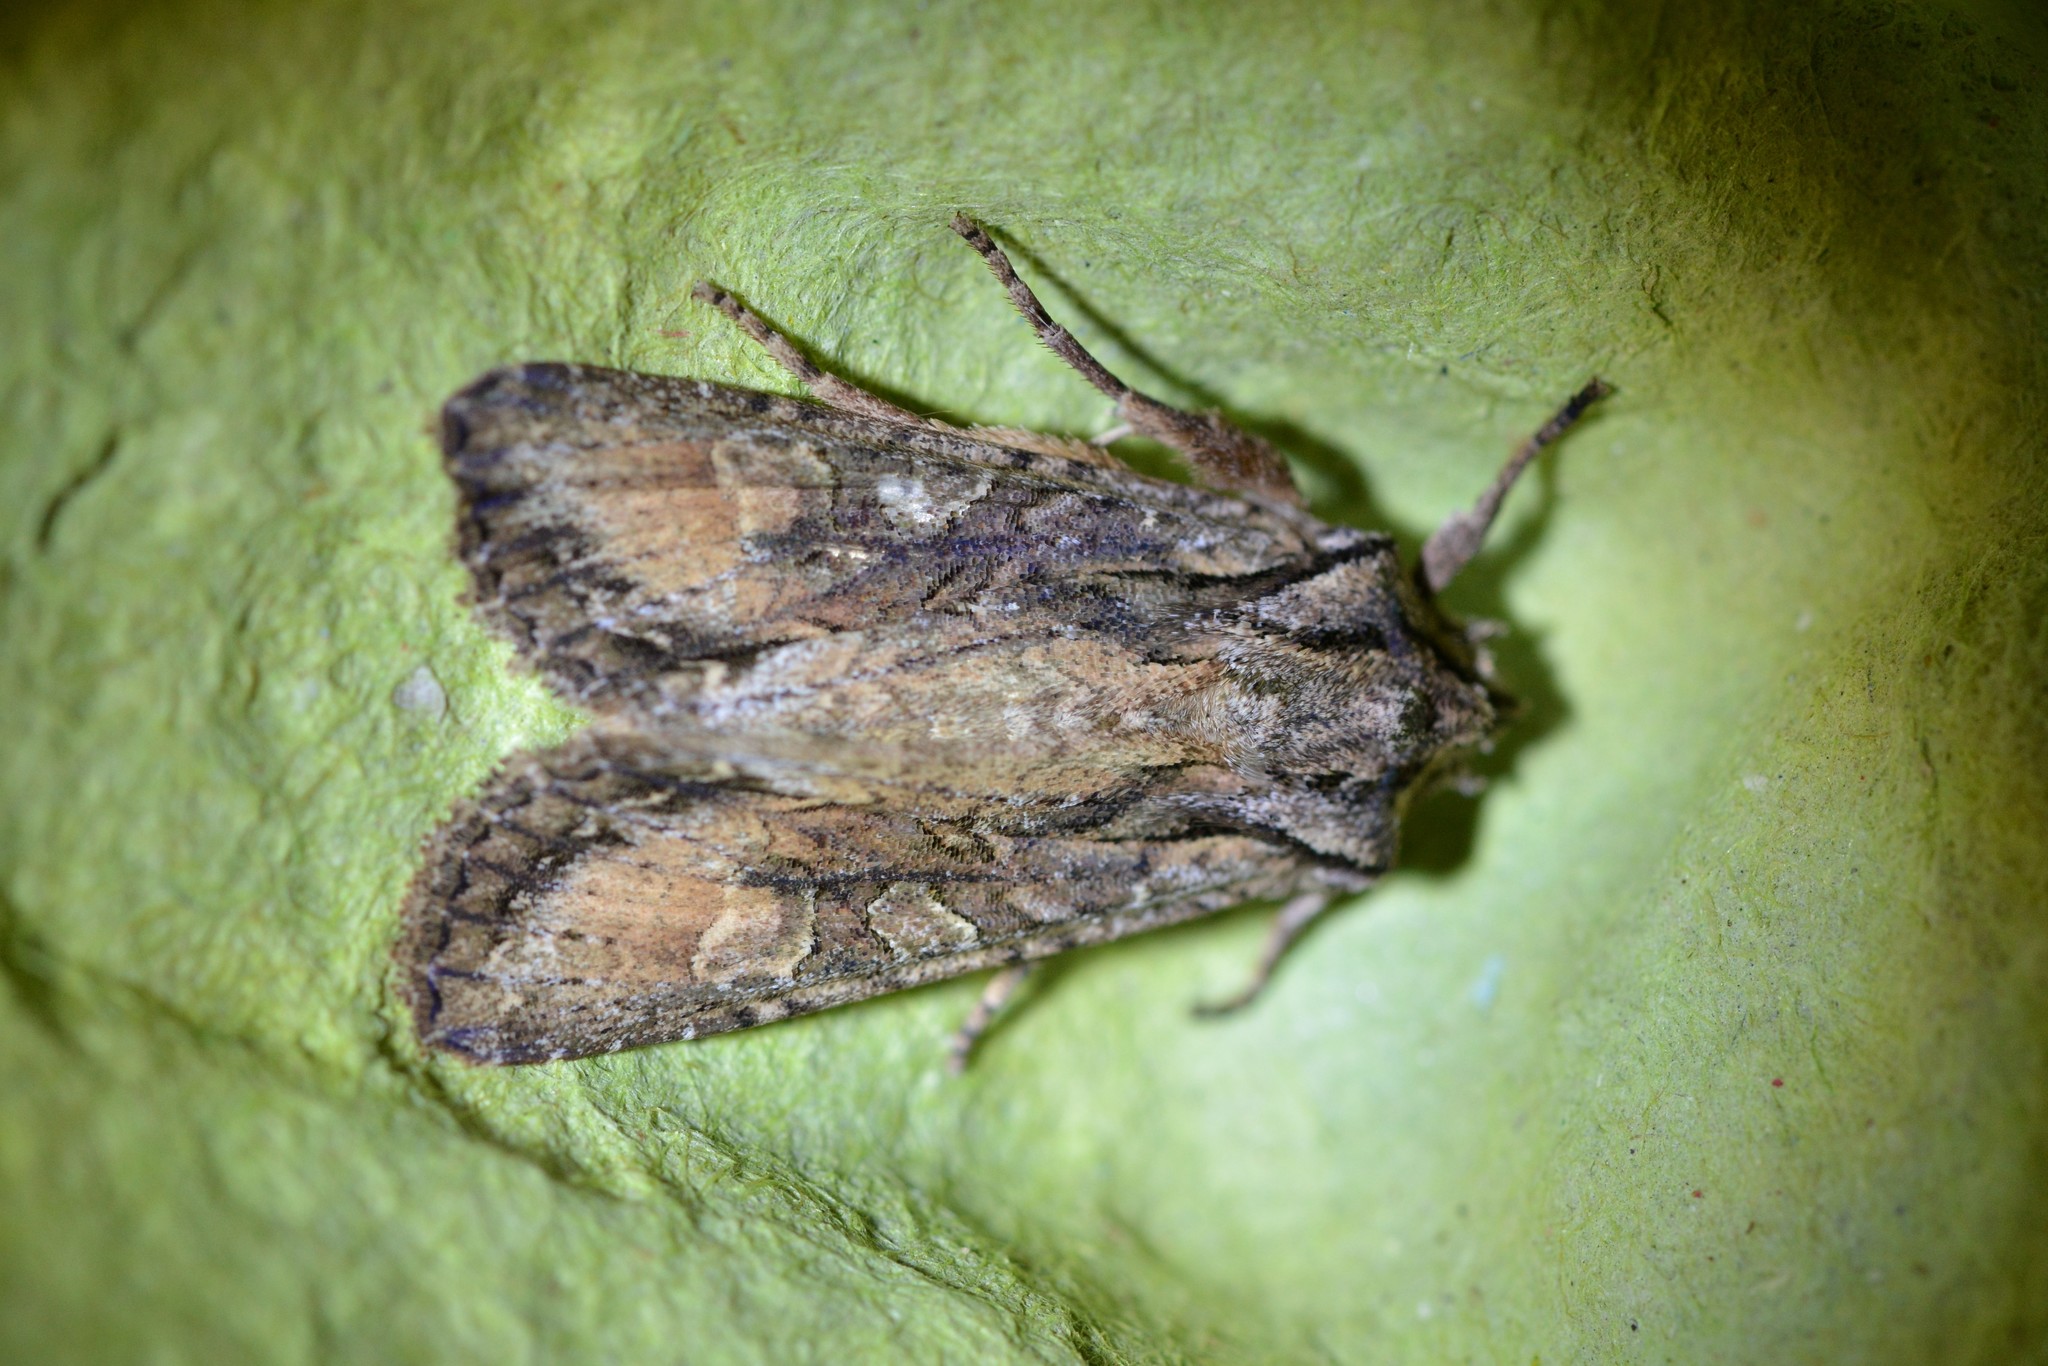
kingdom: Animalia
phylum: Arthropoda
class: Insecta
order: Lepidoptera
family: Noctuidae
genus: Ichneutica
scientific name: Ichneutica mutans
